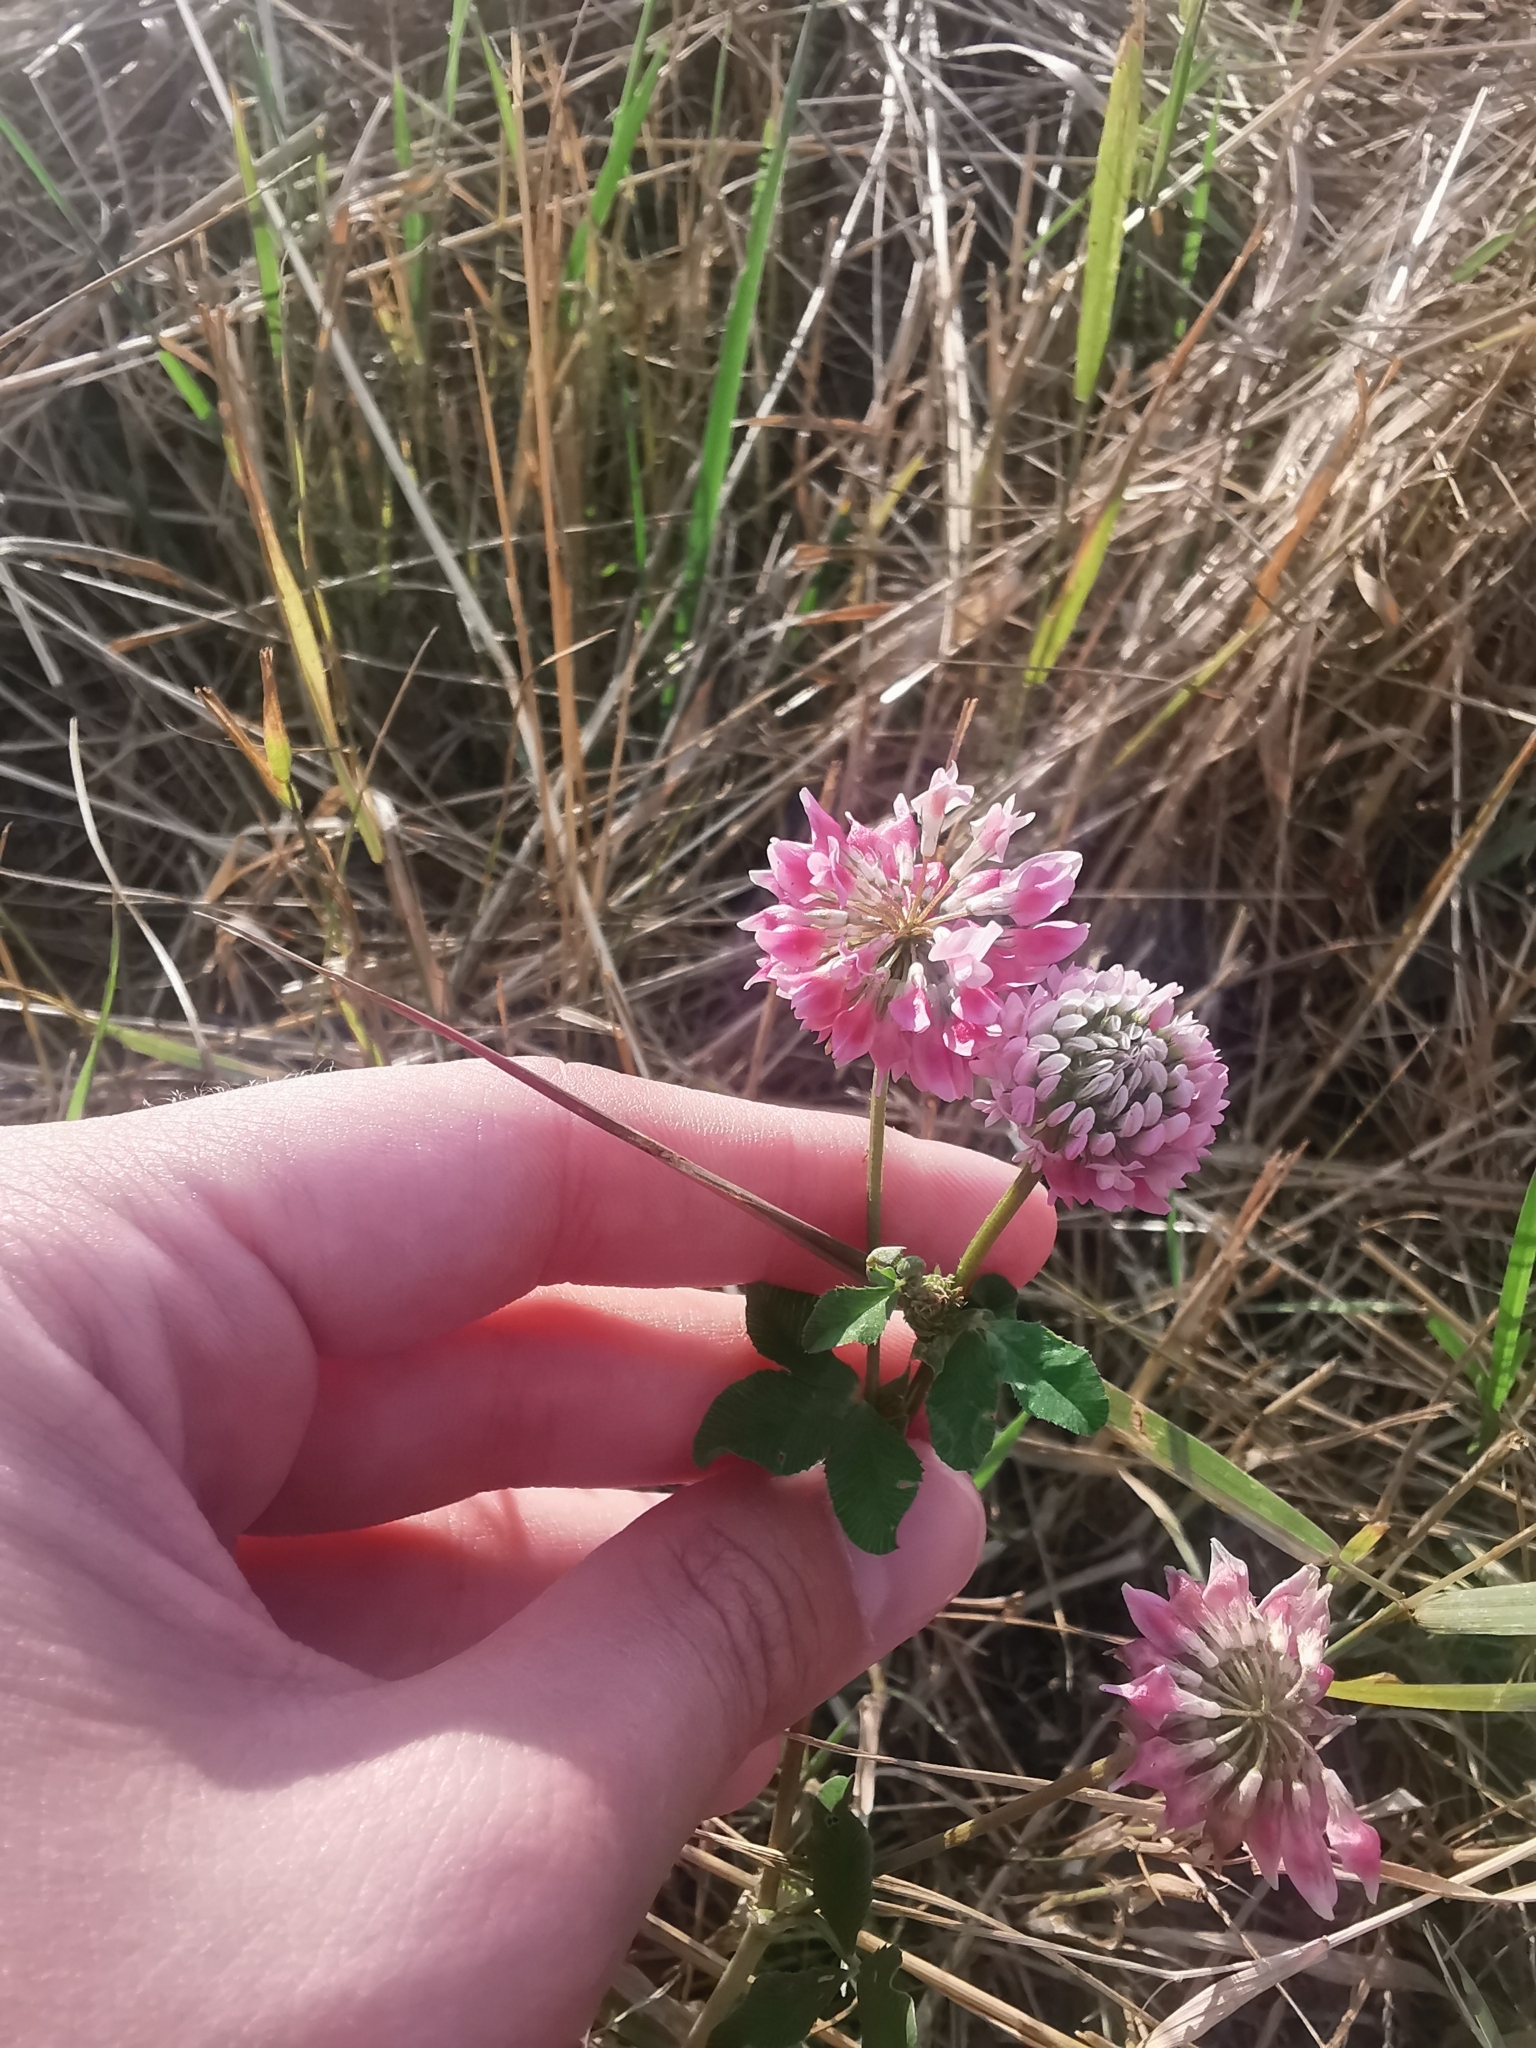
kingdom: Plantae
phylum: Tracheophyta
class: Magnoliopsida
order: Fabales
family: Fabaceae
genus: Trifolium
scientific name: Trifolium hybridum
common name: Alsike clover
